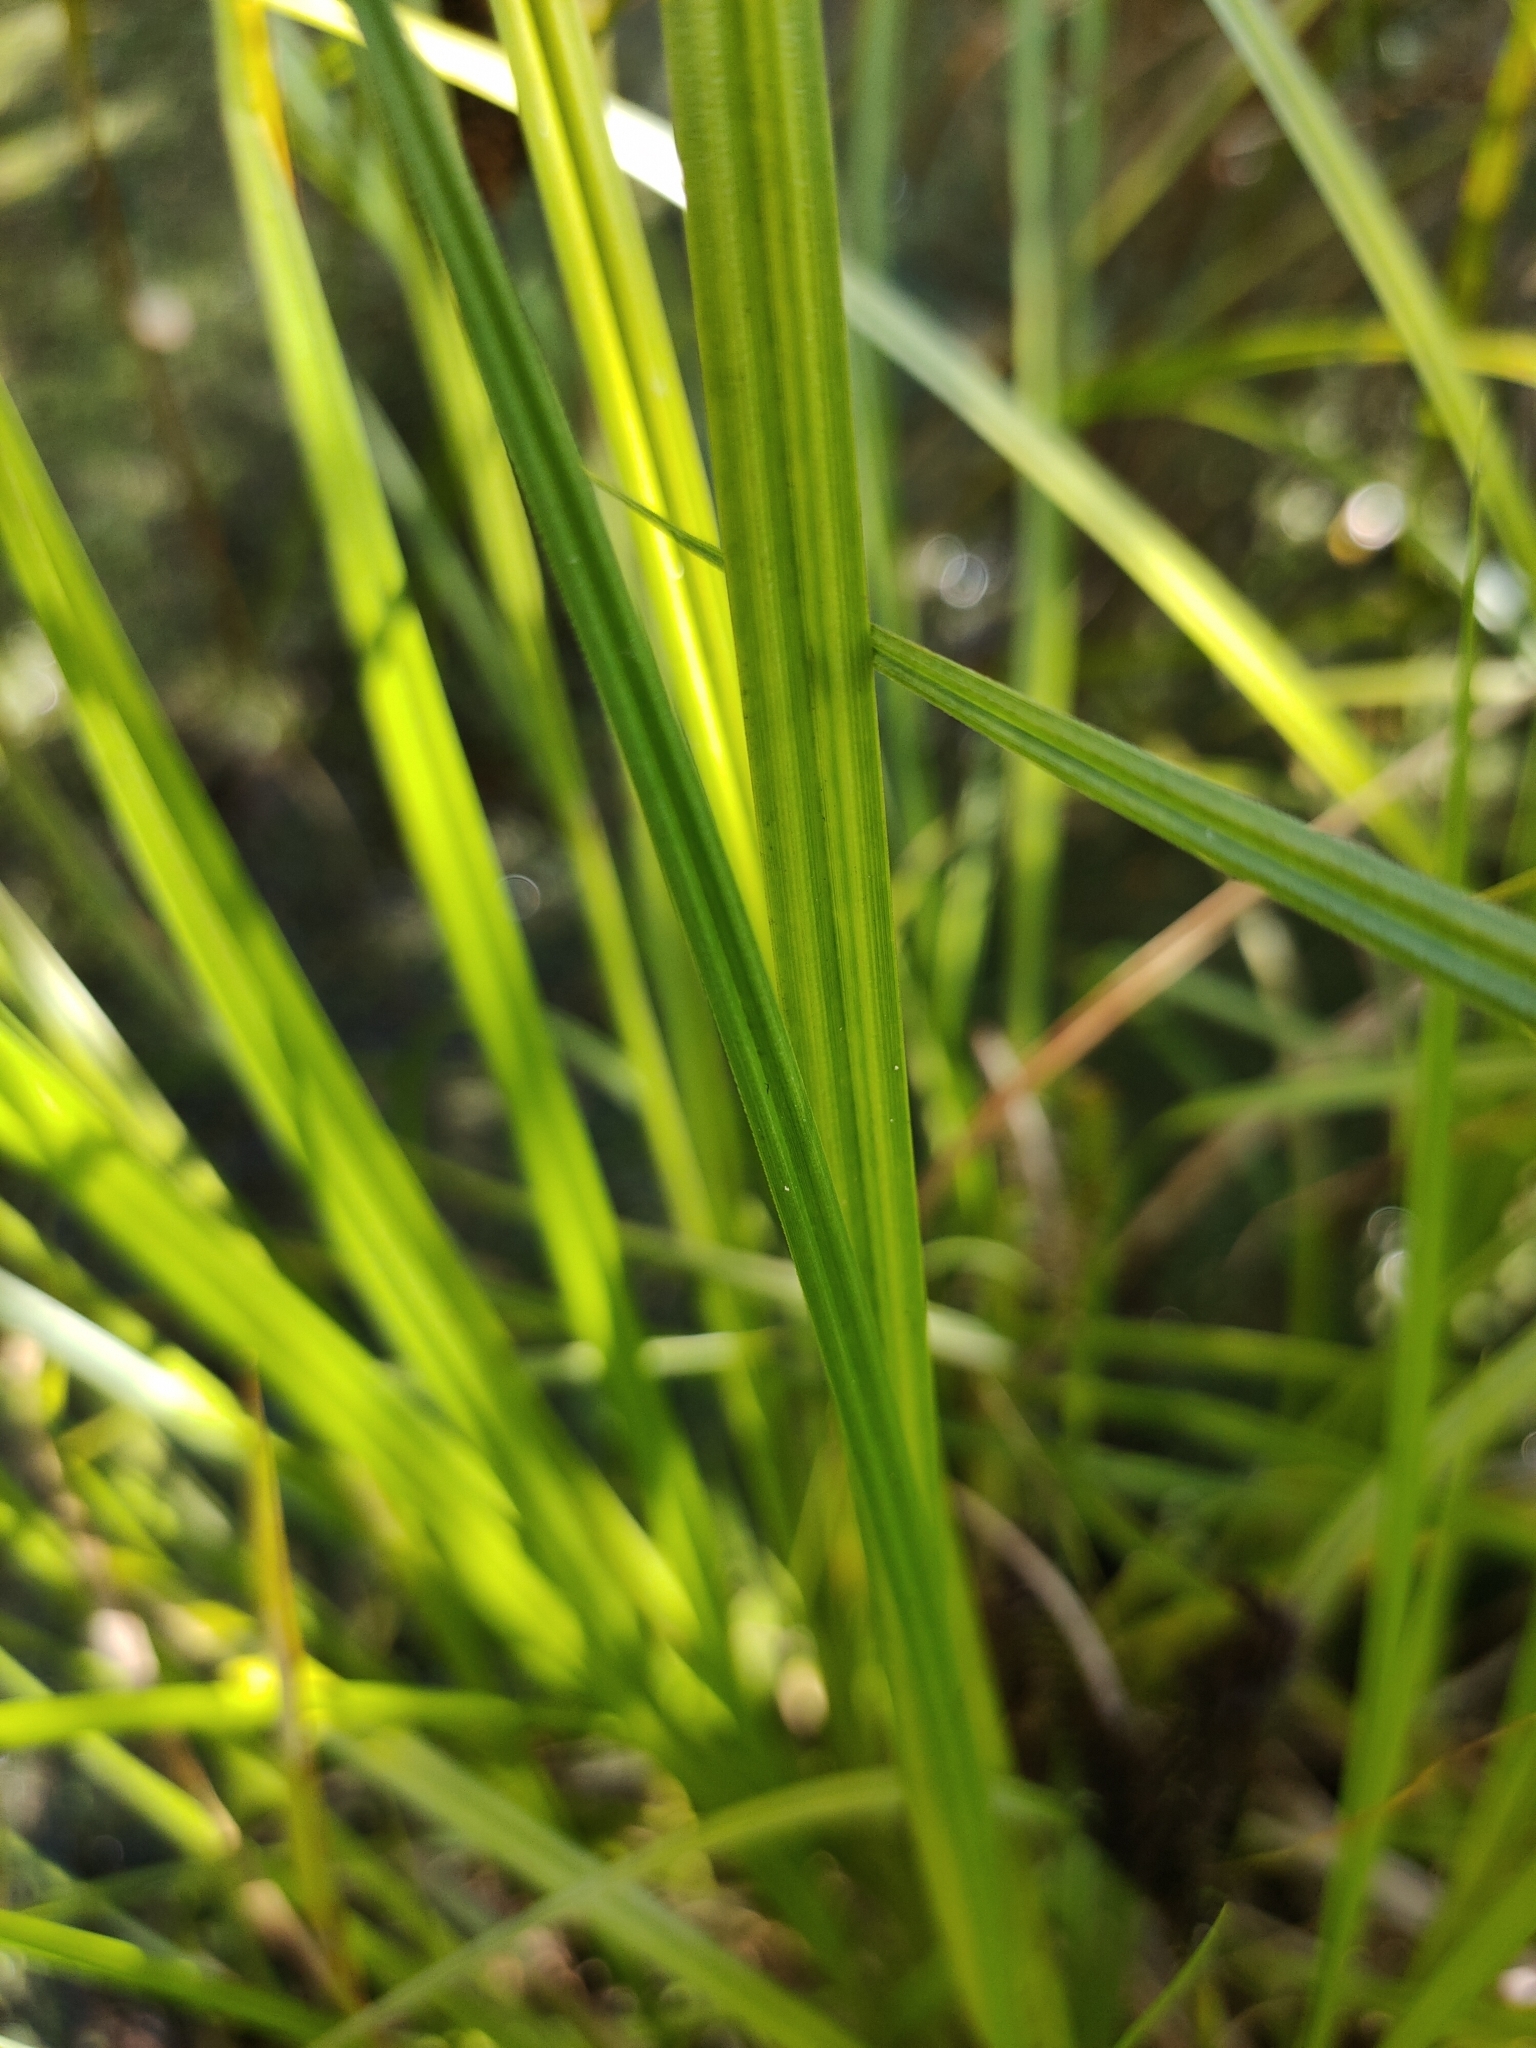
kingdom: Plantae
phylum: Tracheophyta
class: Liliopsida
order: Poales
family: Cyperaceae
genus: Carex
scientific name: Carex maorica
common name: Maori sedge
